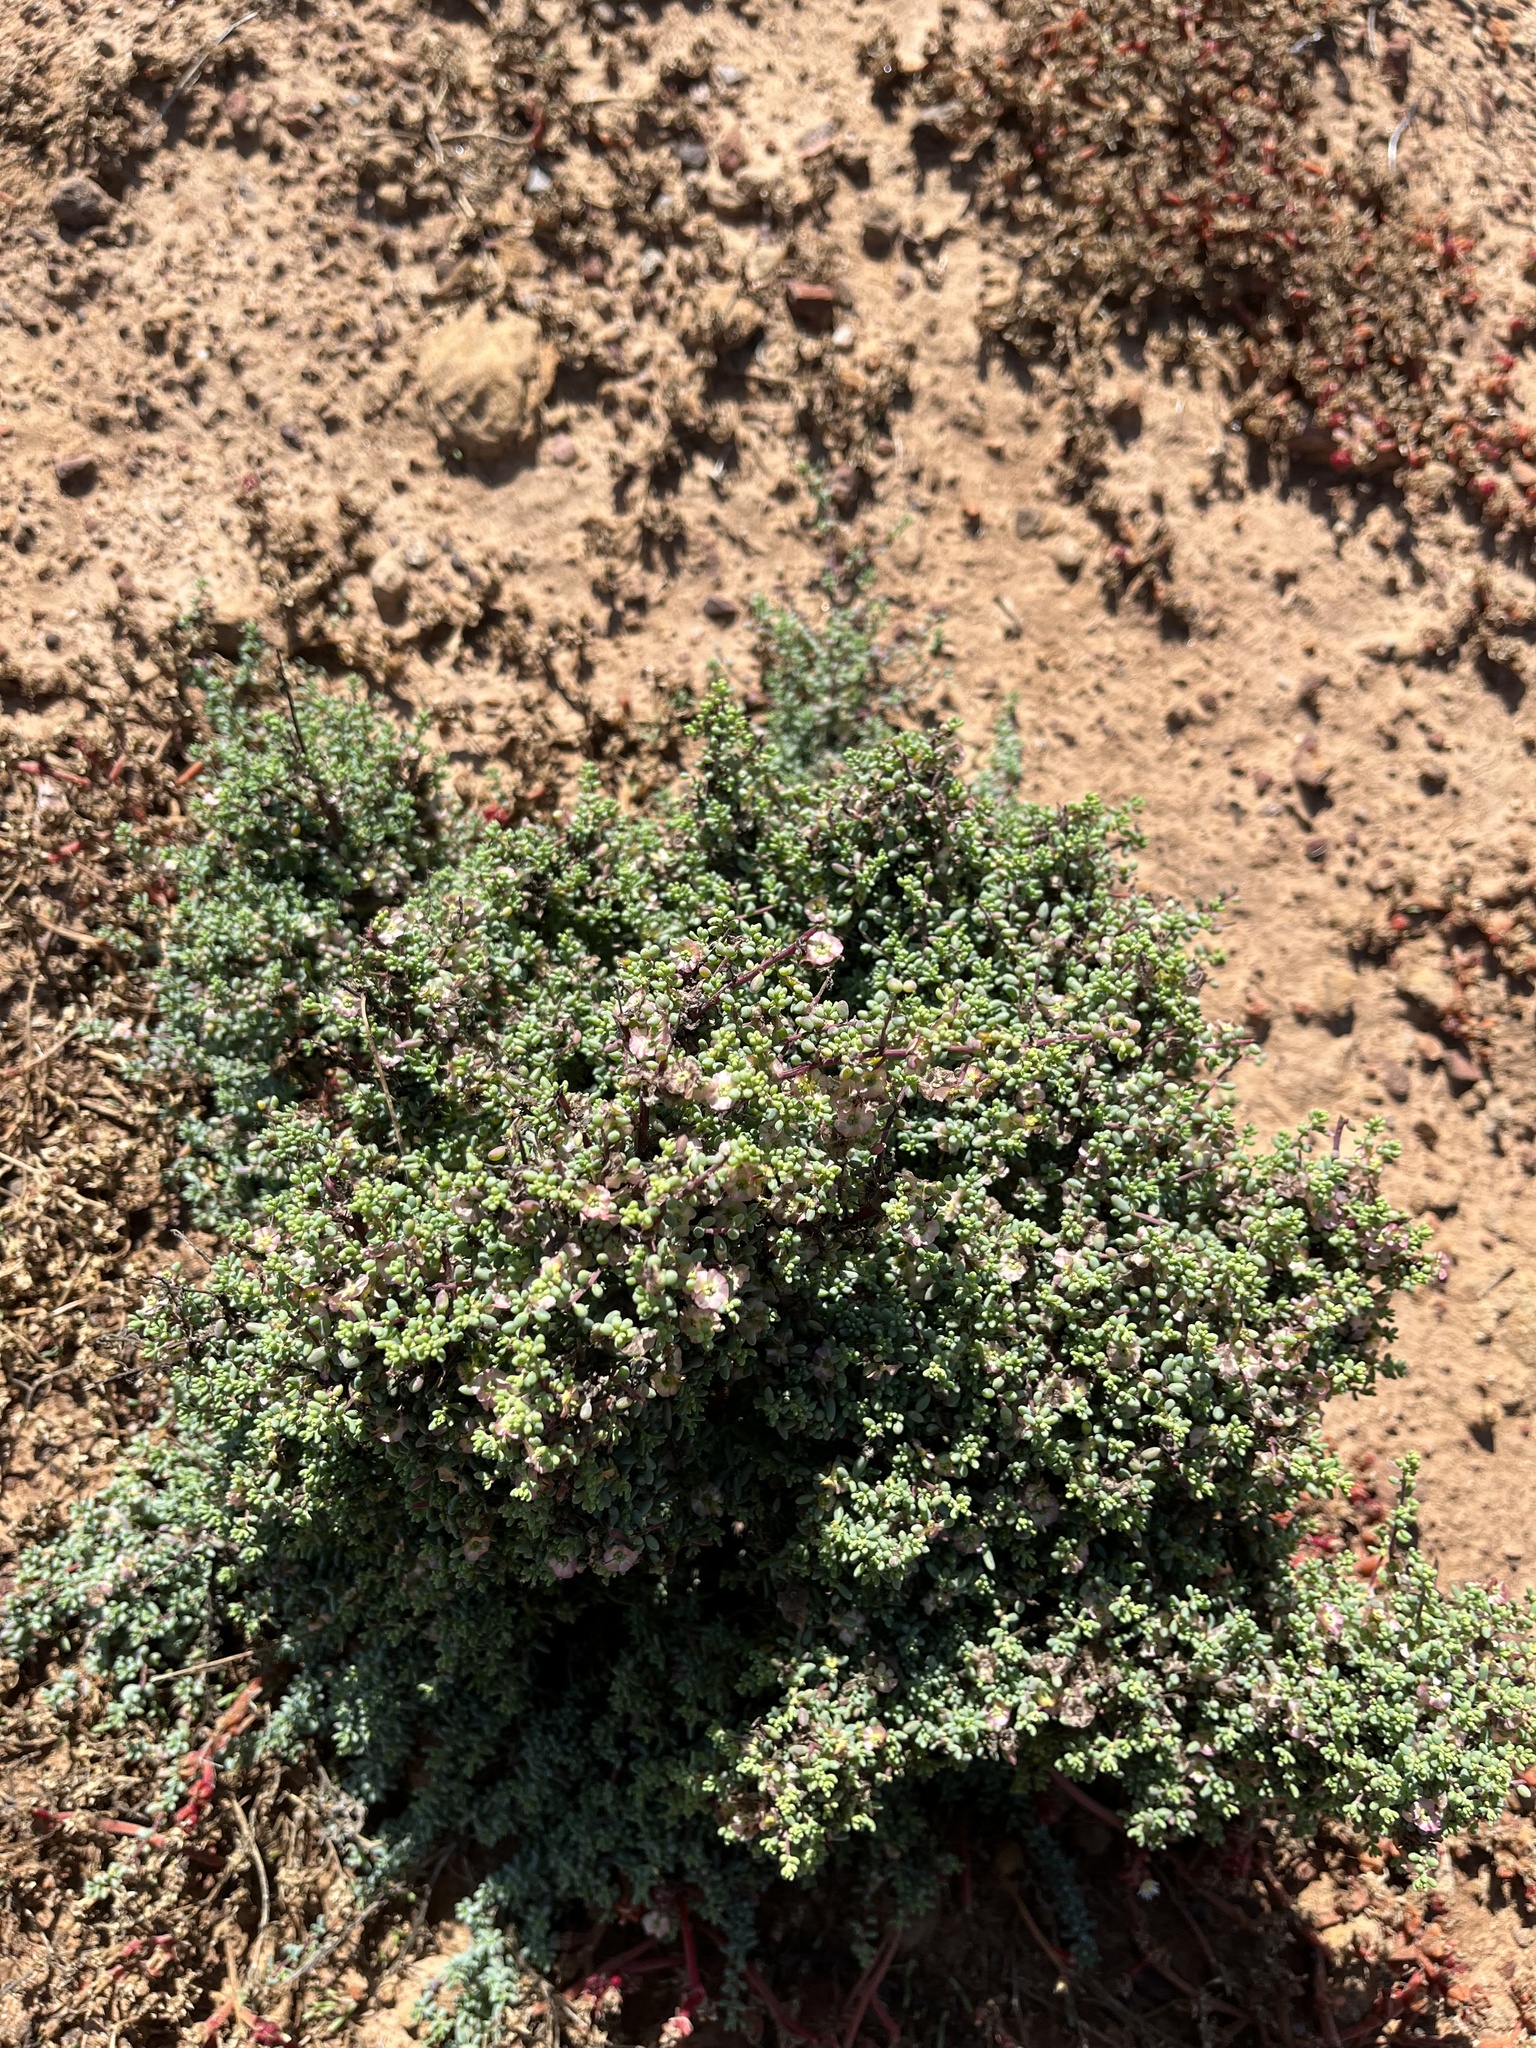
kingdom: Plantae
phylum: Tracheophyta
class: Magnoliopsida
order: Caryophyllales
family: Amaranthaceae
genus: Nitrosalsola
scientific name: Nitrosalsola vermiculata
